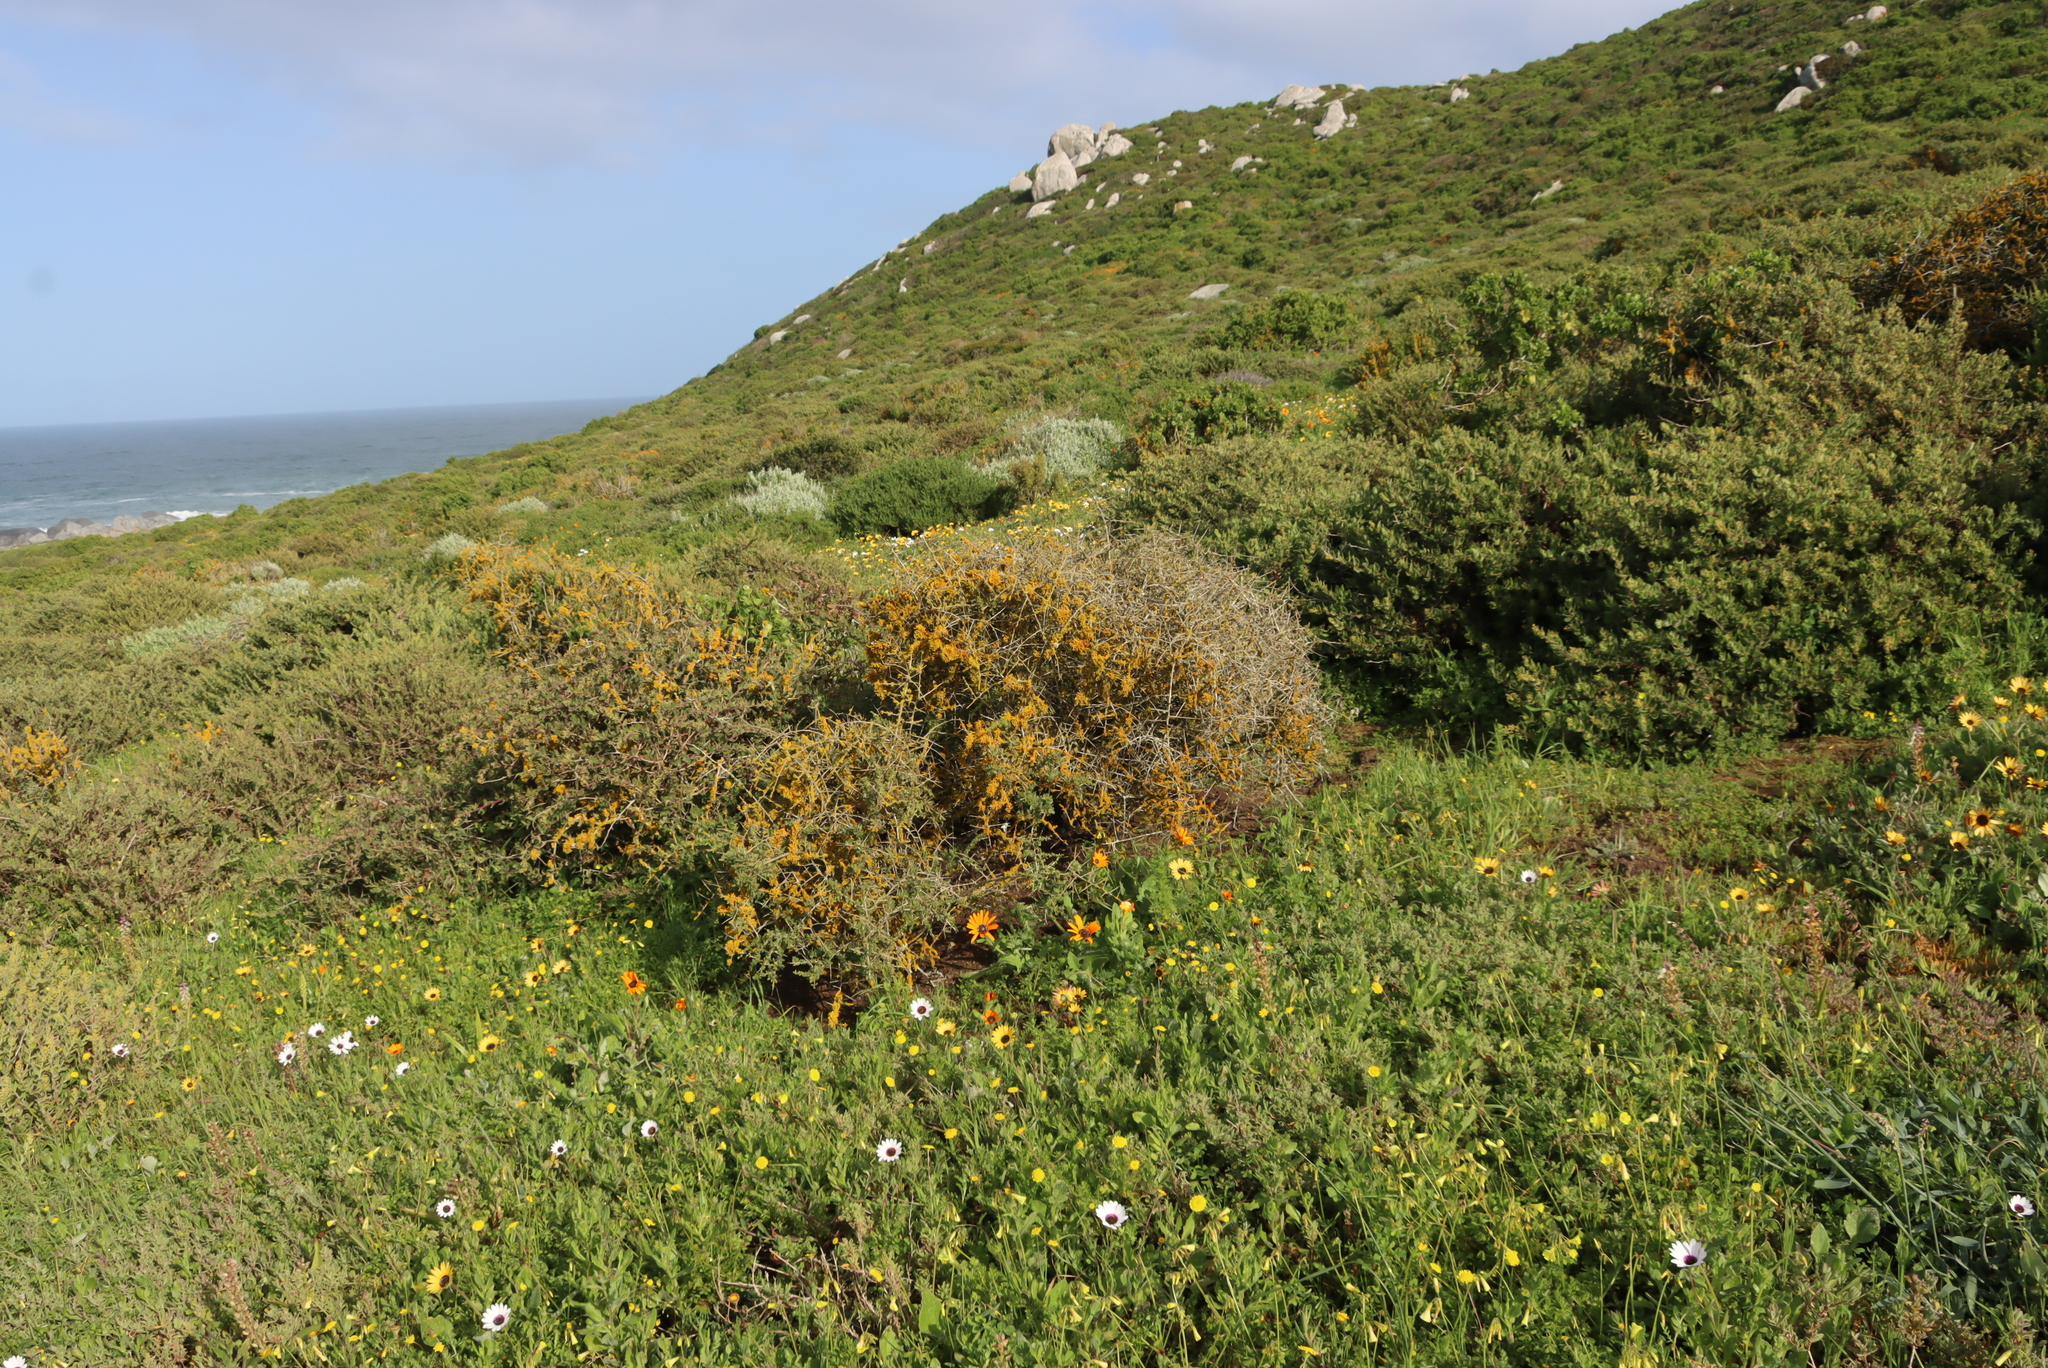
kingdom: Fungi
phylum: Ascomycota
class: Lecanoromycetes
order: Teloschistales
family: Teloschistaceae
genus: Dufourea
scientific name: Dufourea flammea
